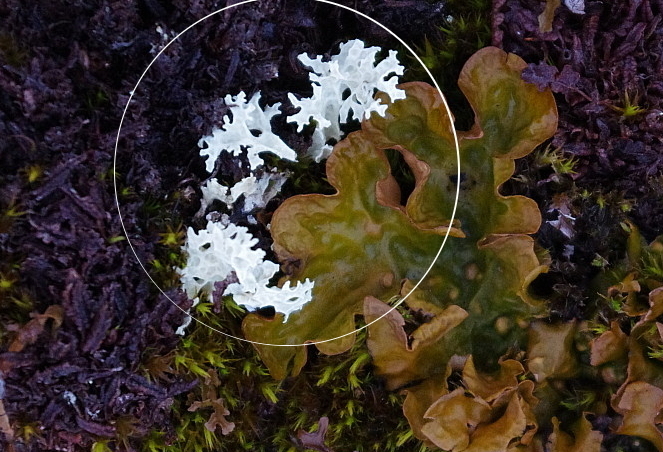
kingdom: Fungi
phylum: Ascomycota
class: Lecanoromycetes
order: Lecanorales
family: Parmeliaceae
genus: Nephromopsis
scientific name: Nephromopsis nivalis
